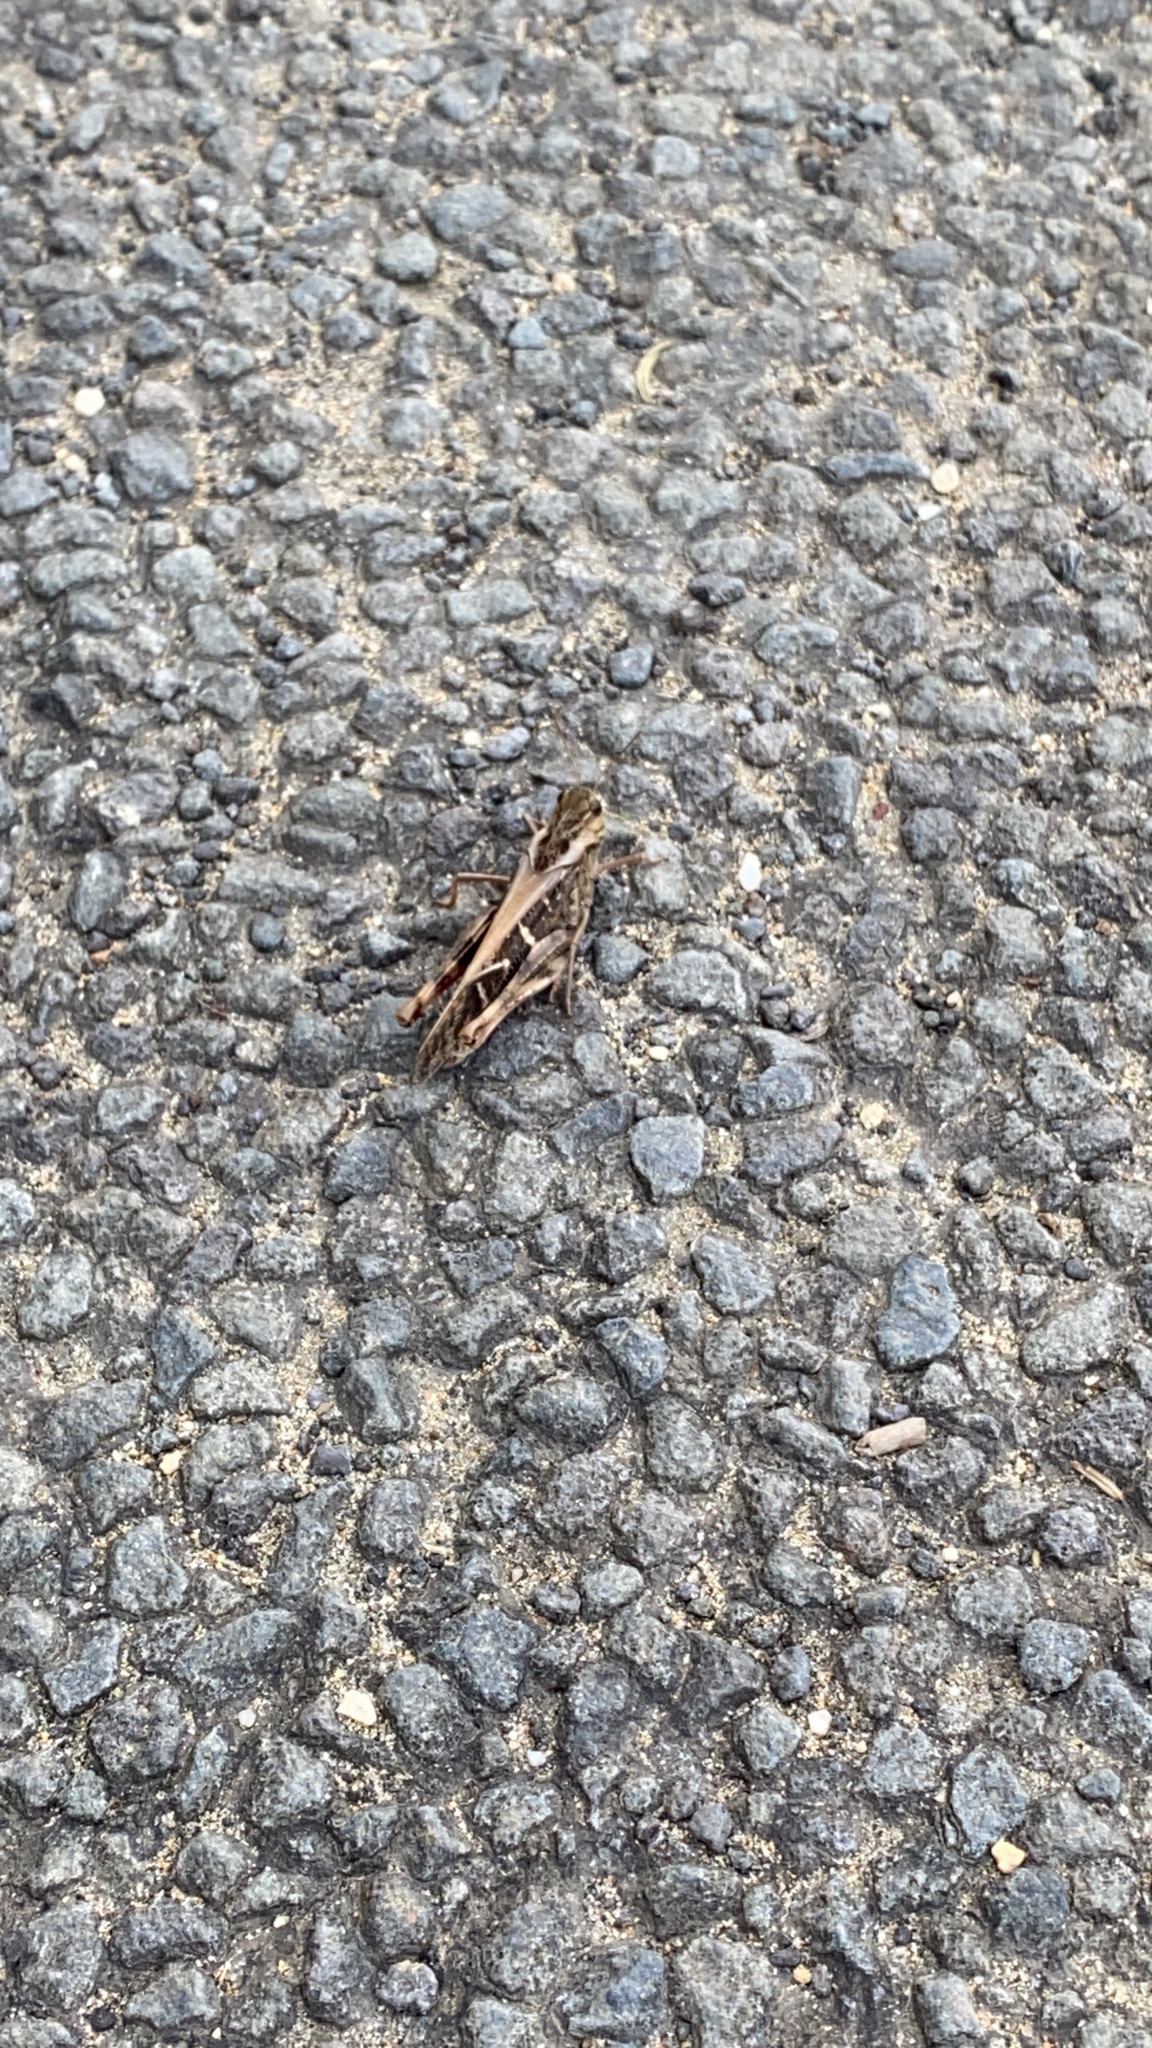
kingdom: Animalia
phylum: Arthropoda
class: Insecta
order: Orthoptera
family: Acrididae
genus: Gastrimargus
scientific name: Gastrimargus musicus
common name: Yellow-winged locust
